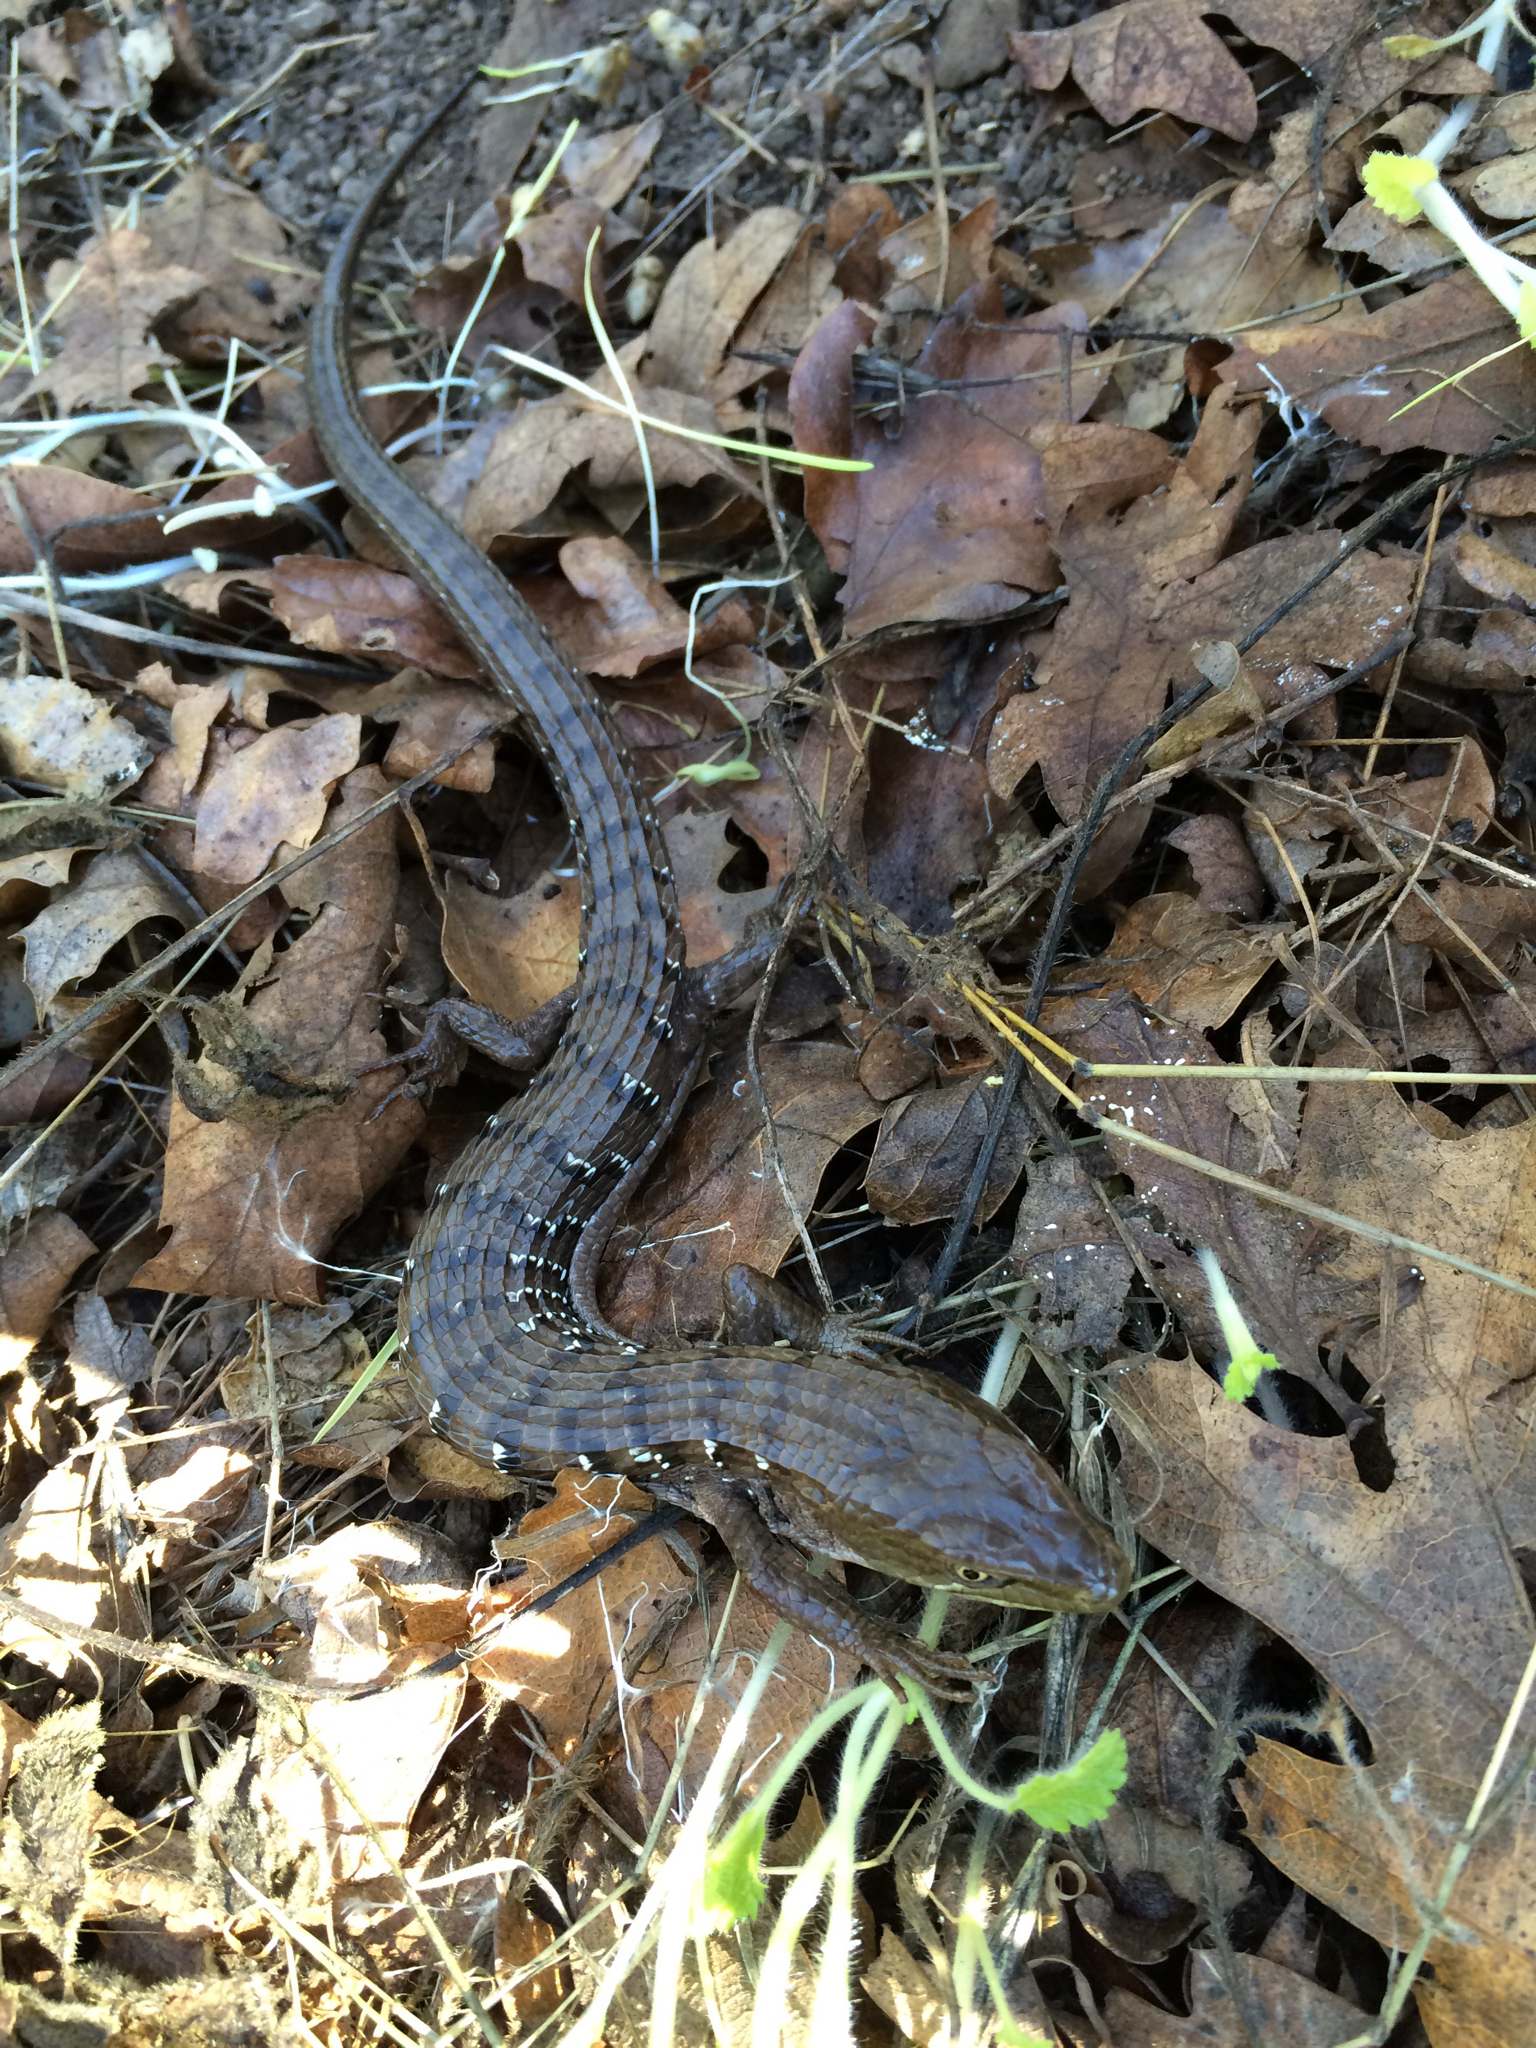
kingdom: Animalia
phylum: Chordata
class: Squamata
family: Anguidae
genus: Elgaria
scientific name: Elgaria multicarinata
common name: Southern alligator lizard
